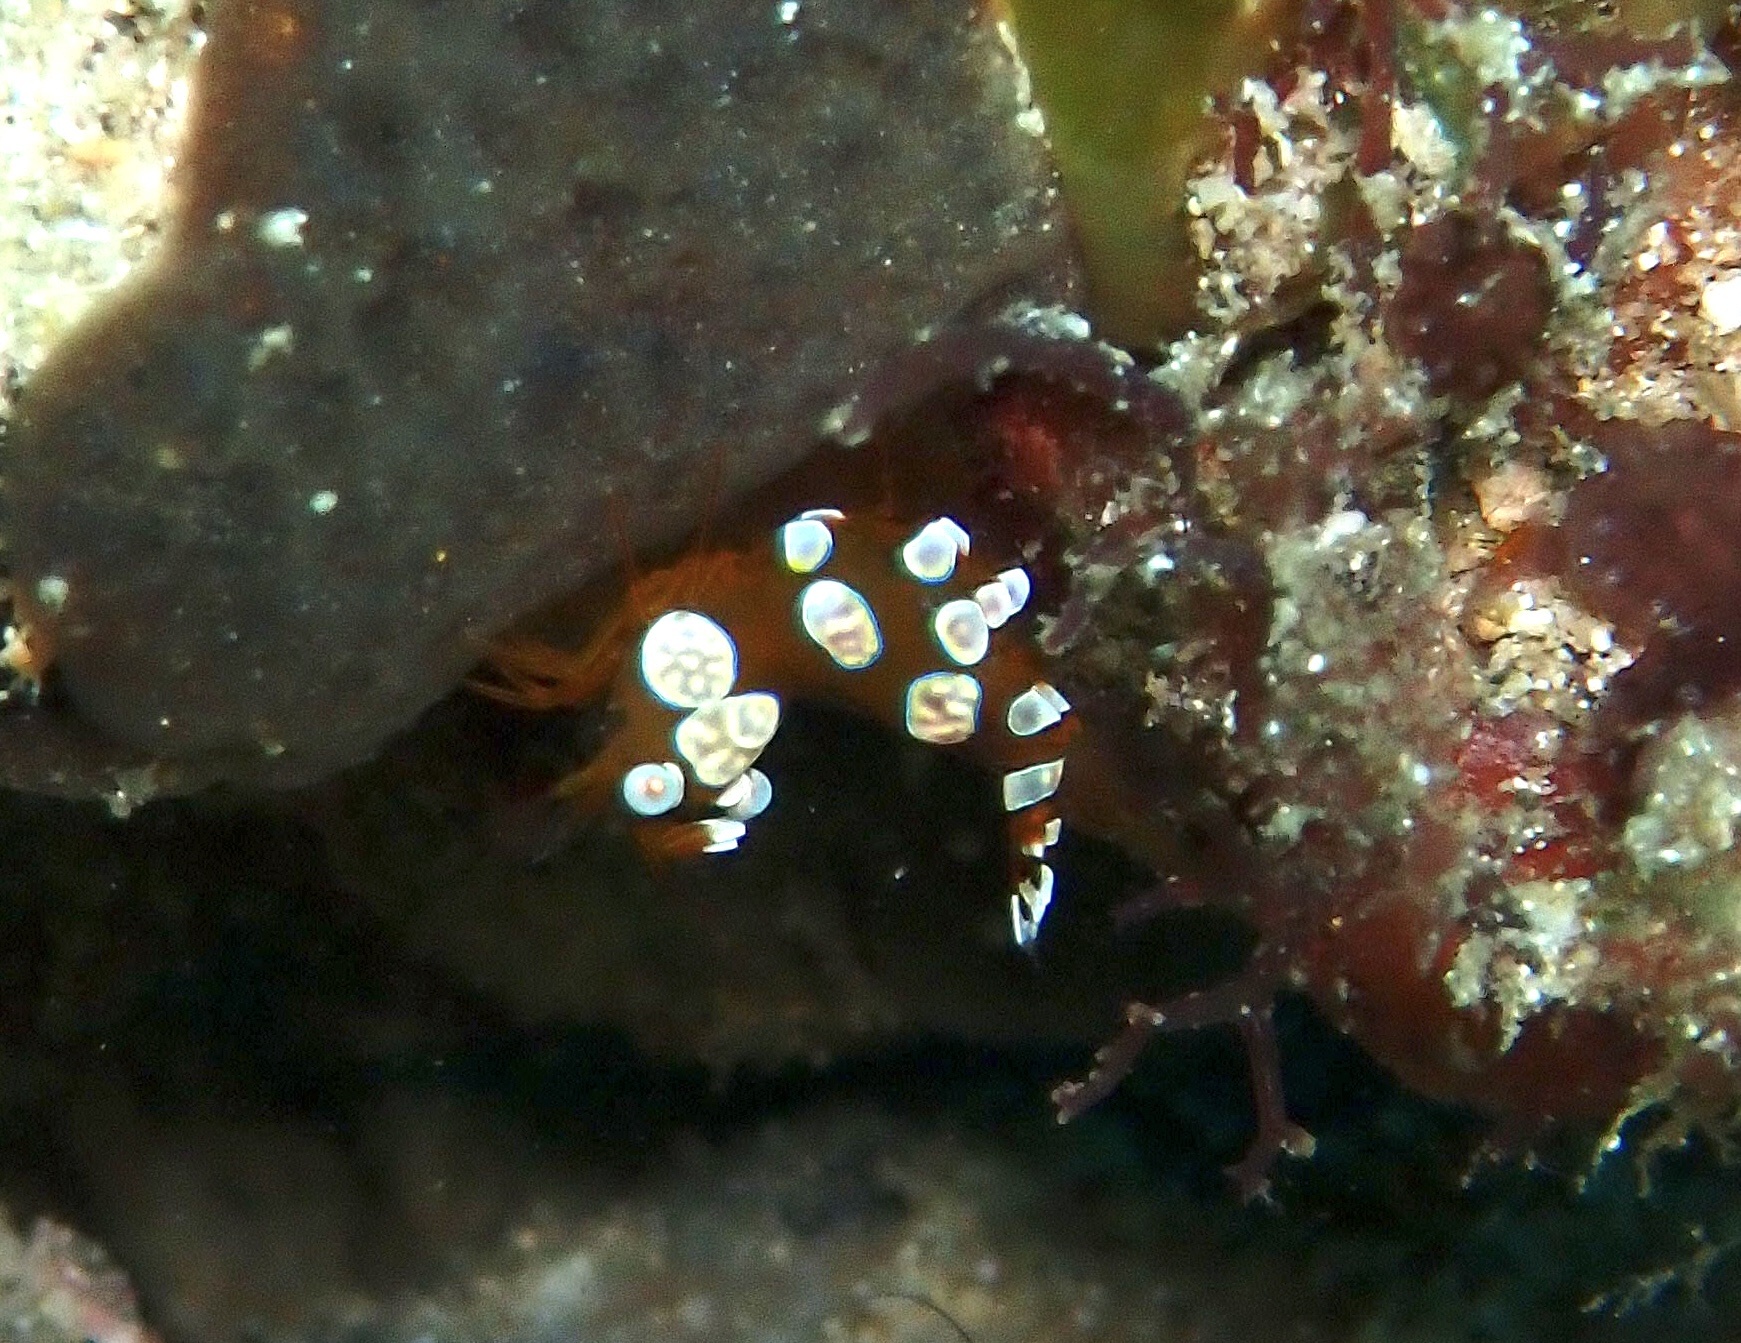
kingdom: Animalia
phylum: Arthropoda
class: Malacostraca
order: Decapoda
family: Thoridae
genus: Thor
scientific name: Thor amboinensis
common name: Squat anemone shrimp
